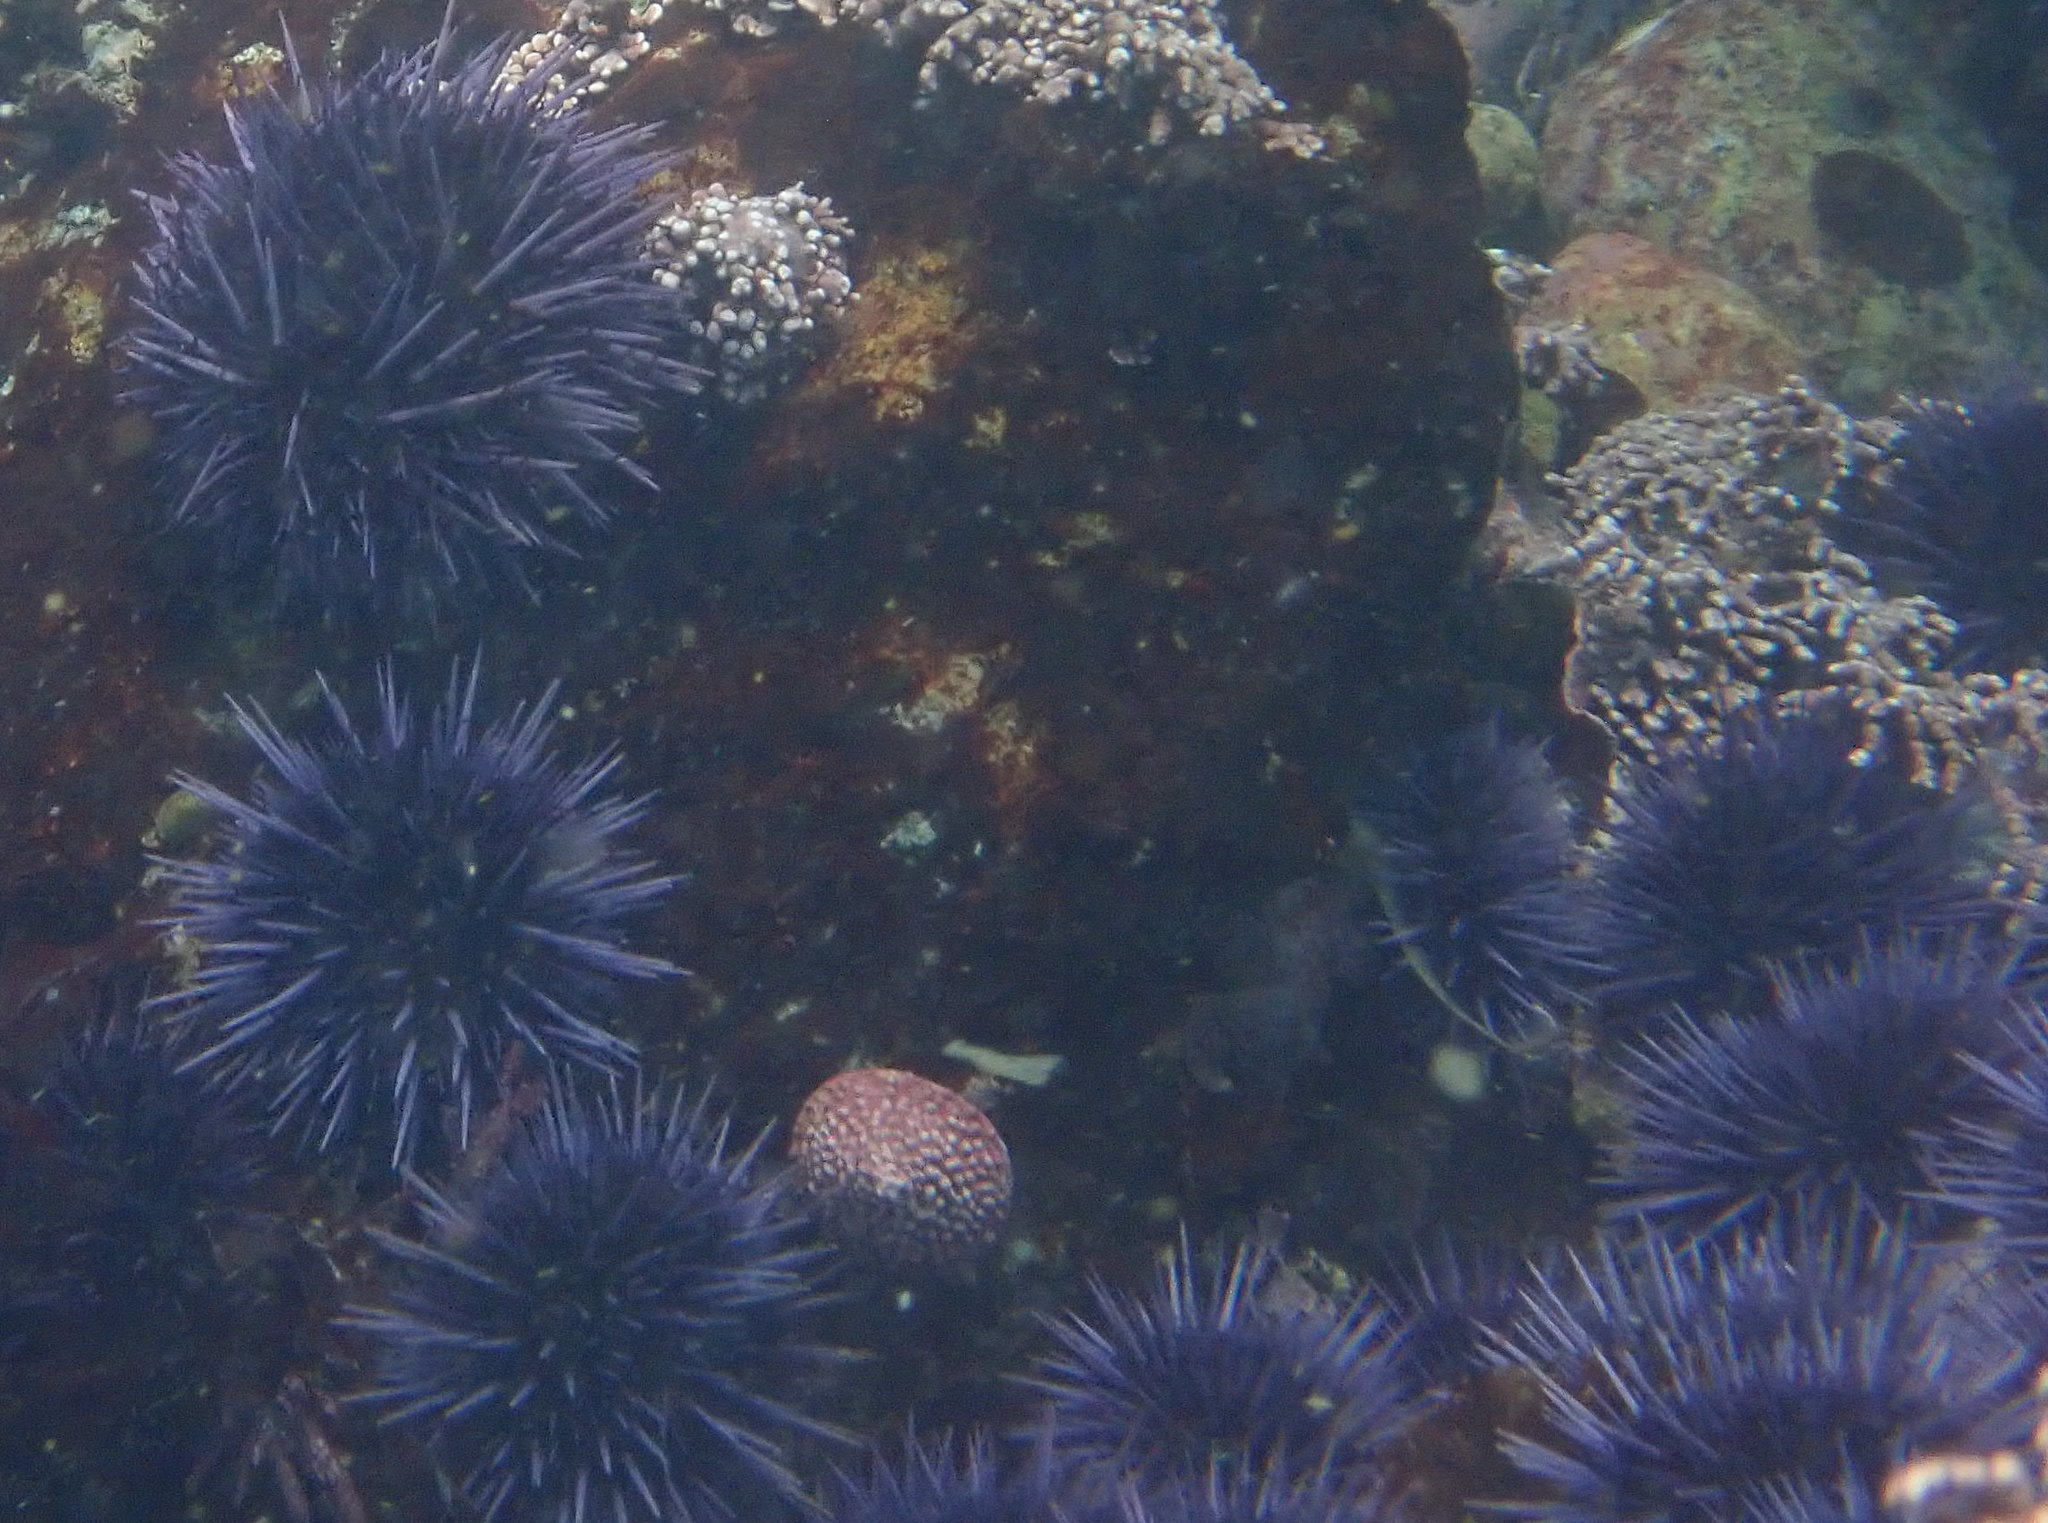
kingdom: Animalia
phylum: Echinodermata
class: Echinoidea
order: Camarodonta
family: Strongylocentrotidae
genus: Strongylocentrotus
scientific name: Strongylocentrotus purpuratus
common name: Purple sea urchin
